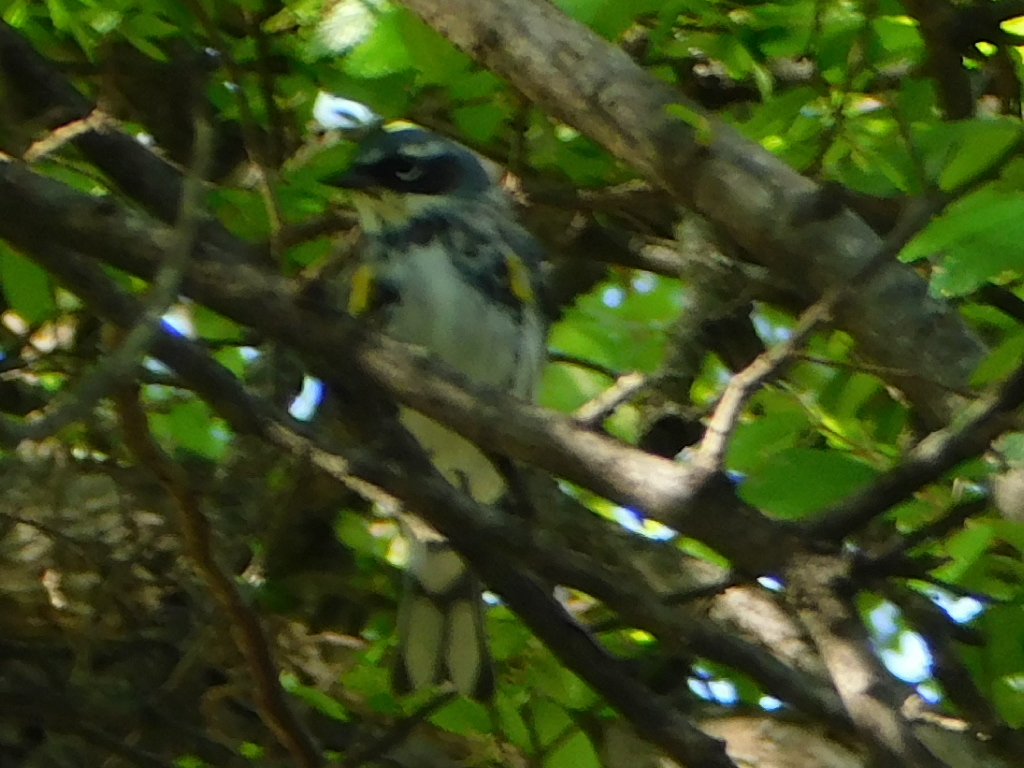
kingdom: Animalia
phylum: Chordata
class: Aves
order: Passeriformes
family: Parulidae
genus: Setophaga
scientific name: Setophaga coronata
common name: Myrtle warbler
